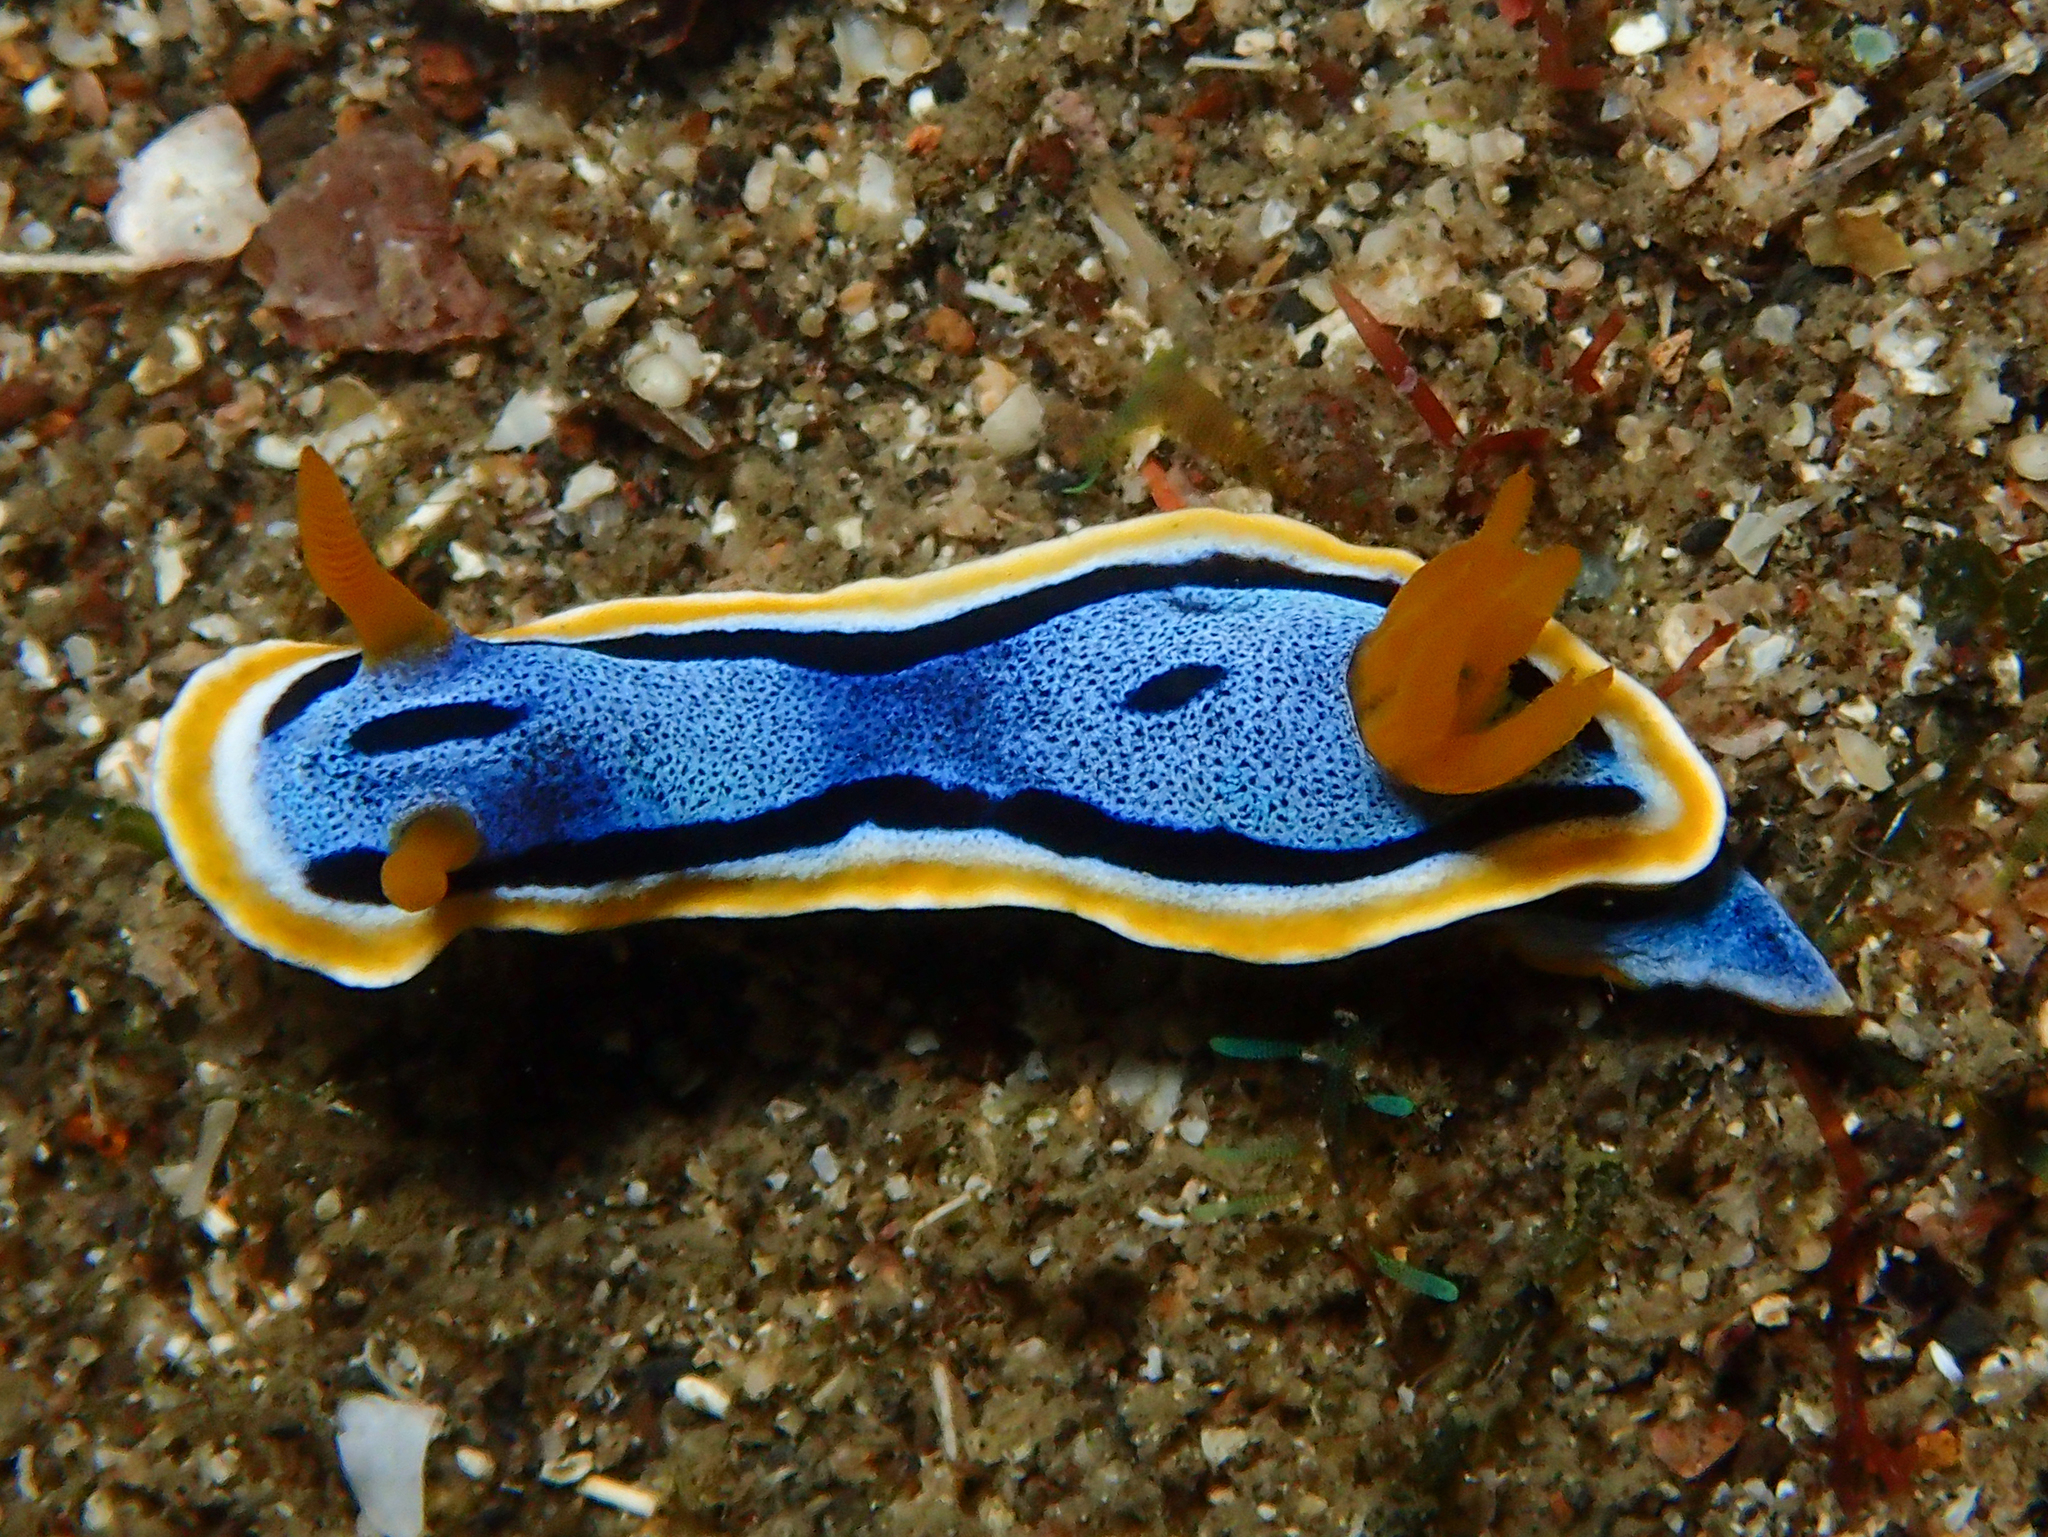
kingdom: Animalia
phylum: Mollusca
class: Gastropoda
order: Nudibranchia
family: Chromodorididae
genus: Chromodoris
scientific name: Chromodoris annae
